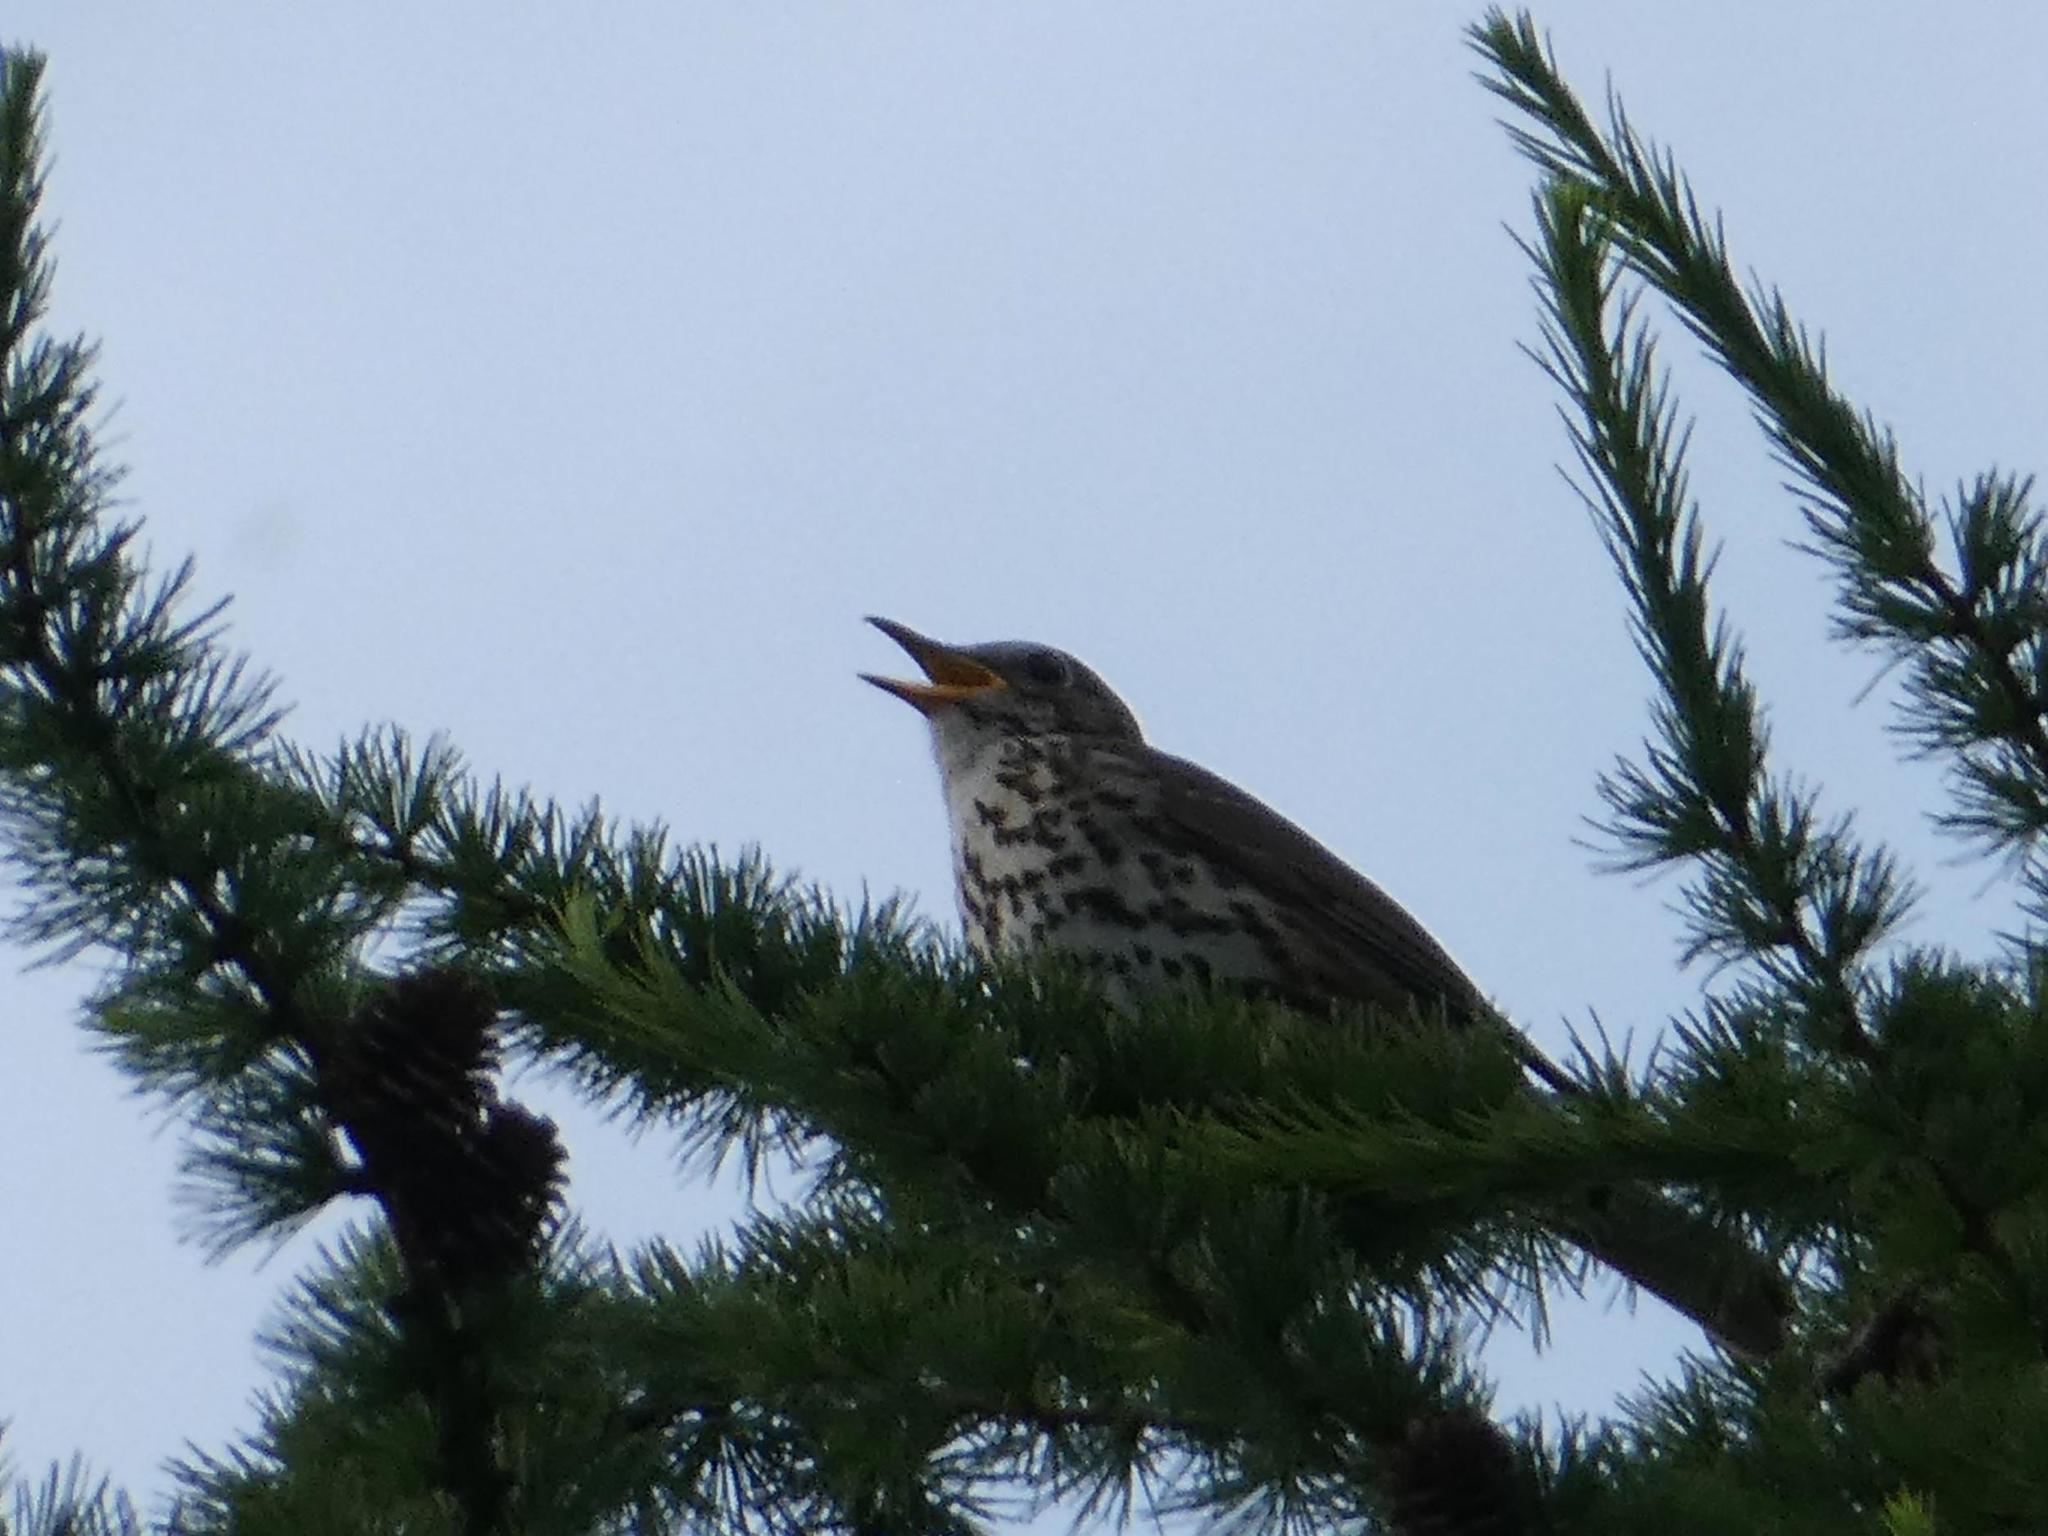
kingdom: Animalia
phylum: Chordata
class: Aves
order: Passeriformes
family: Turdidae
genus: Turdus
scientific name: Turdus philomelos
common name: Song thrush
